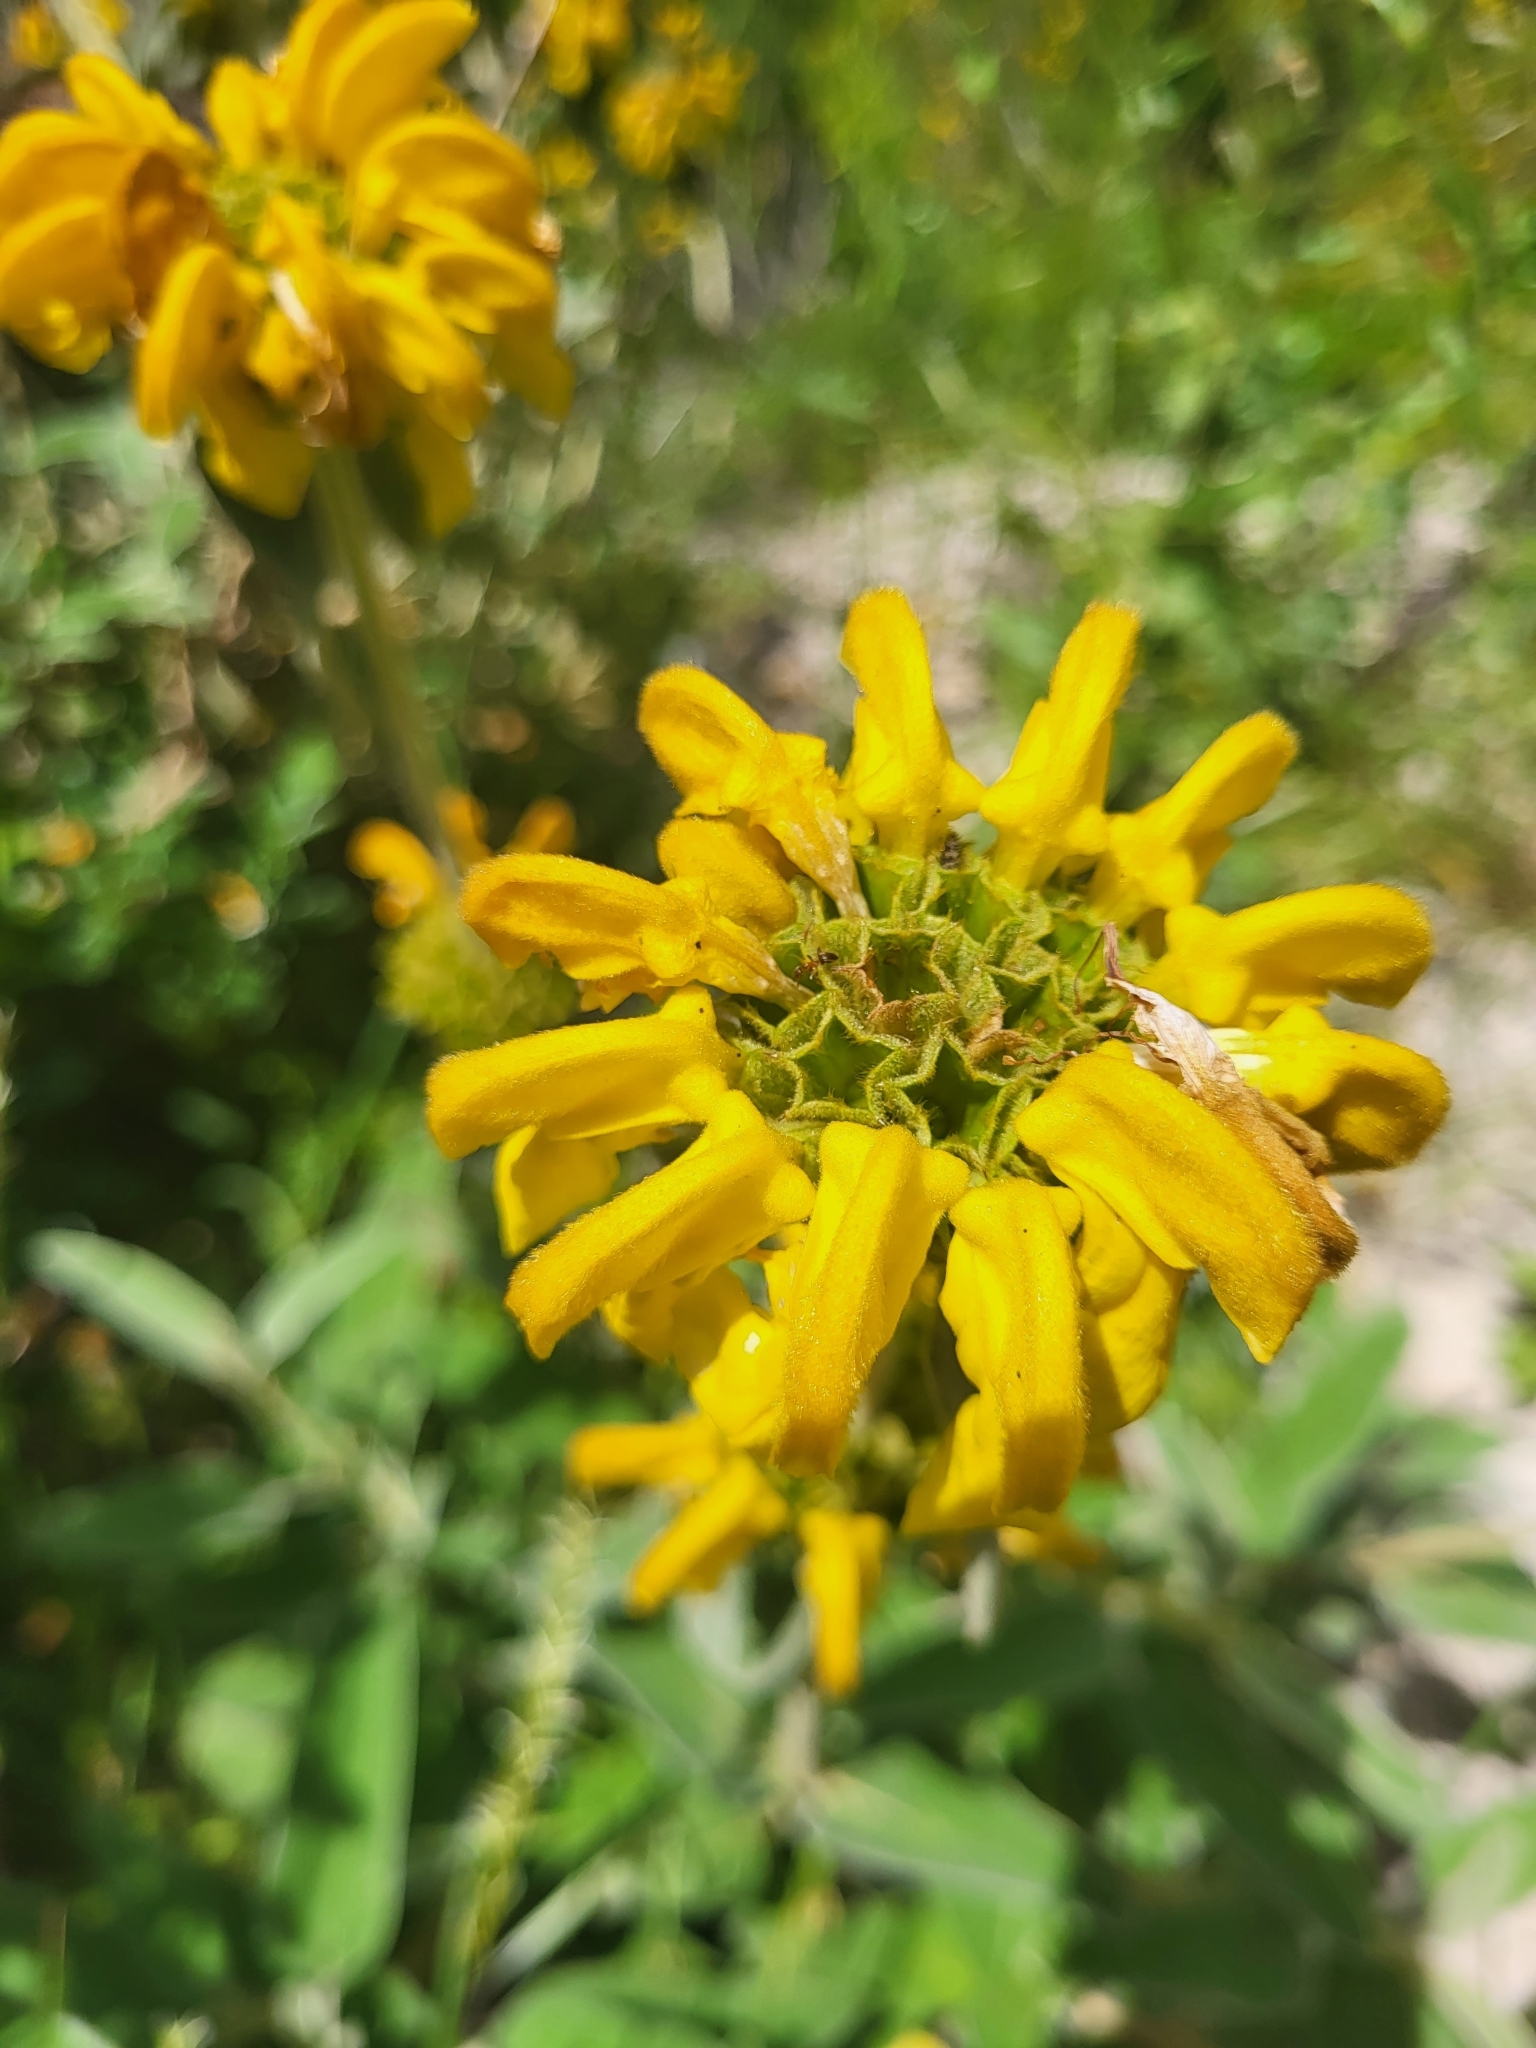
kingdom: Plantae
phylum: Tracheophyta
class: Magnoliopsida
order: Lamiales
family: Lamiaceae
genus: Phlomis
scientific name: Phlomis fruticosa
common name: Jerusalem sage
